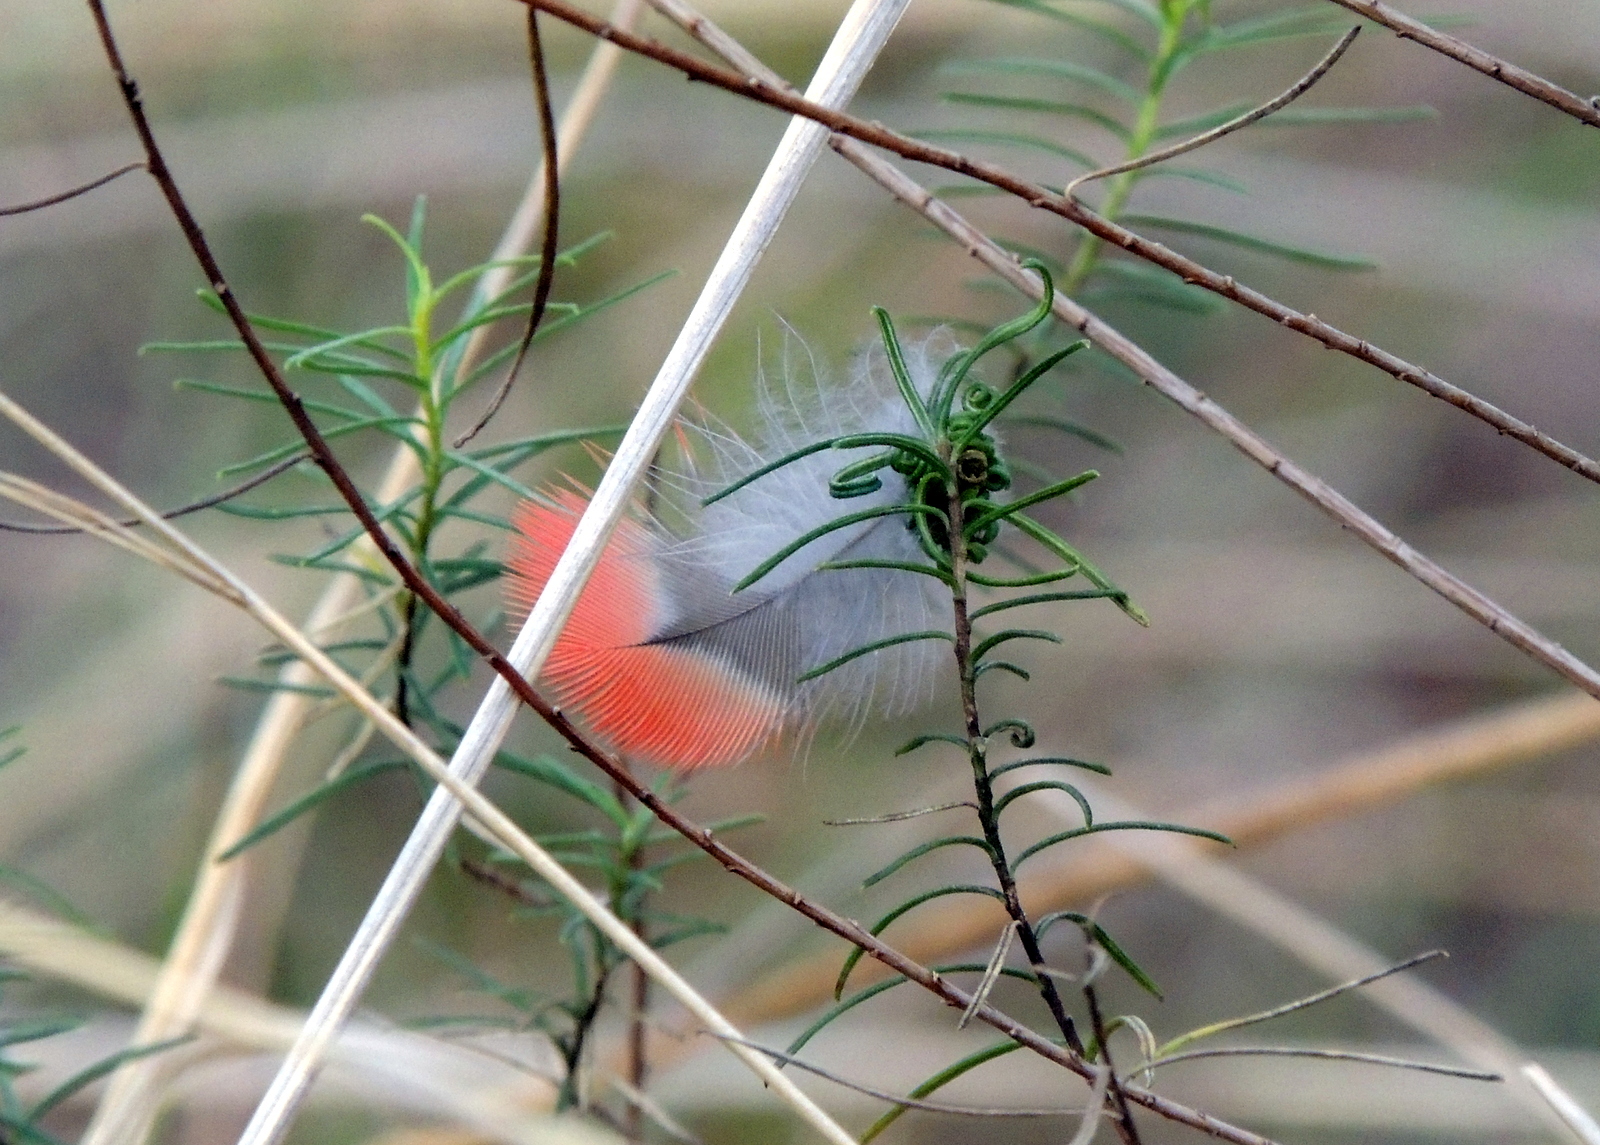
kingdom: Animalia
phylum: Chordata
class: Aves
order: Psittaciformes
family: Psittacidae
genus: Platycercus
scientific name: Platycercus elegans
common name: Crimson rosella
